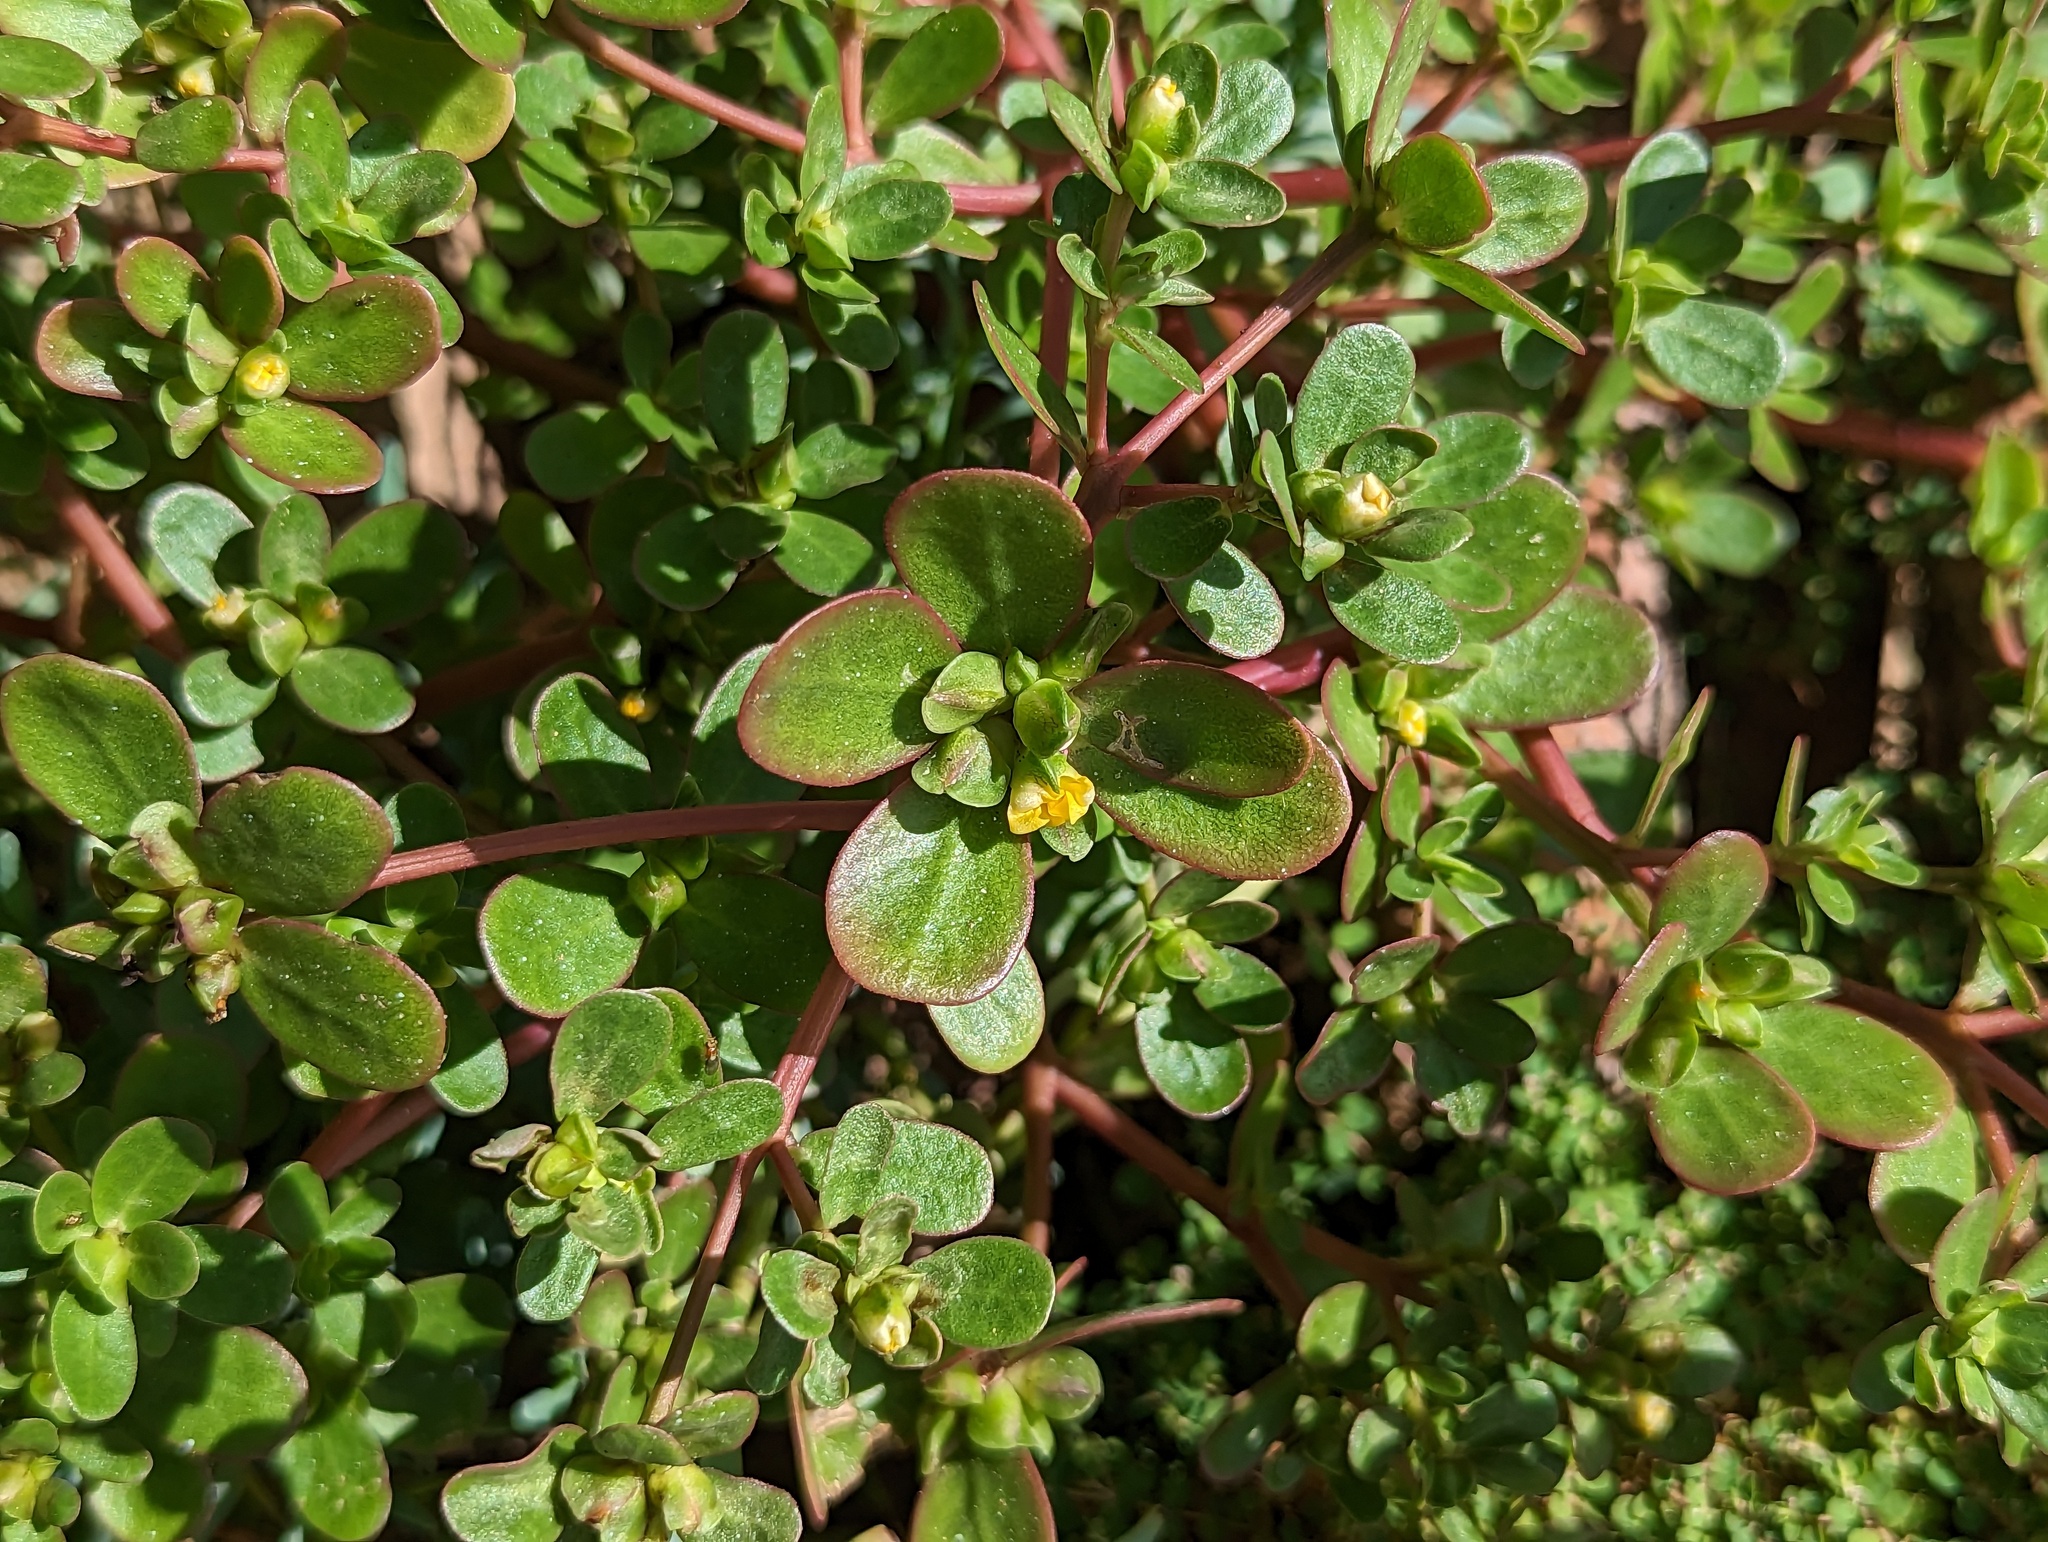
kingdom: Plantae
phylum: Tracheophyta
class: Magnoliopsida
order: Caryophyllales
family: Portulacaceae
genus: Portulaca
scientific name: Portulaca oleracea
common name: Common purslane
